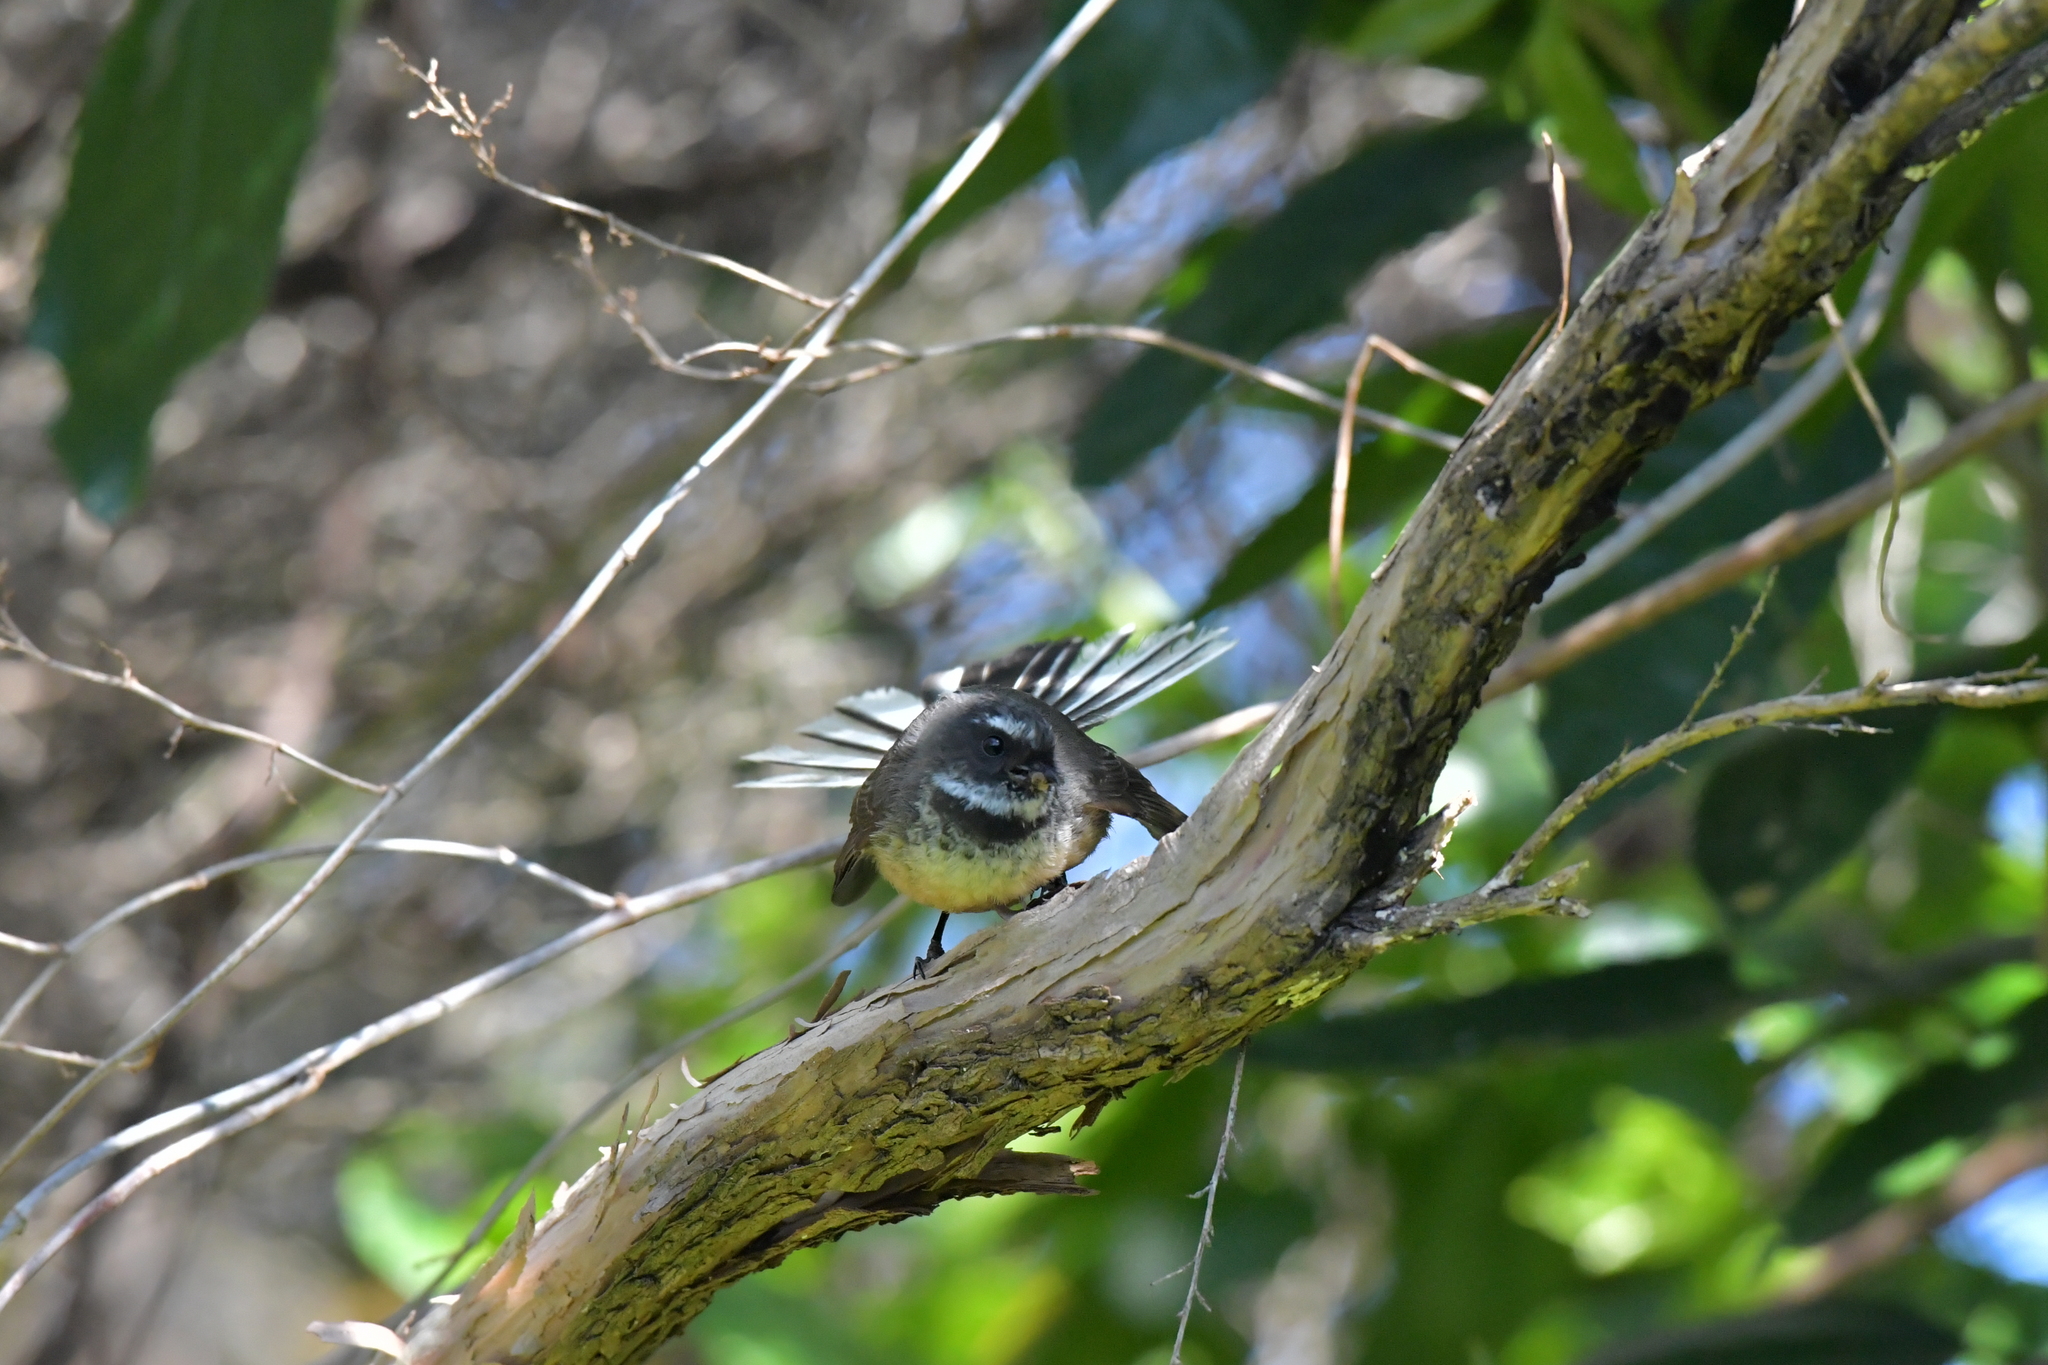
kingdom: Animalia
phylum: Chordata
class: Aves
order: Passeriformes
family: Rhipiduridae
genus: Rhipidura
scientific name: Rhipidura fuliginosa
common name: New zealand fantail
